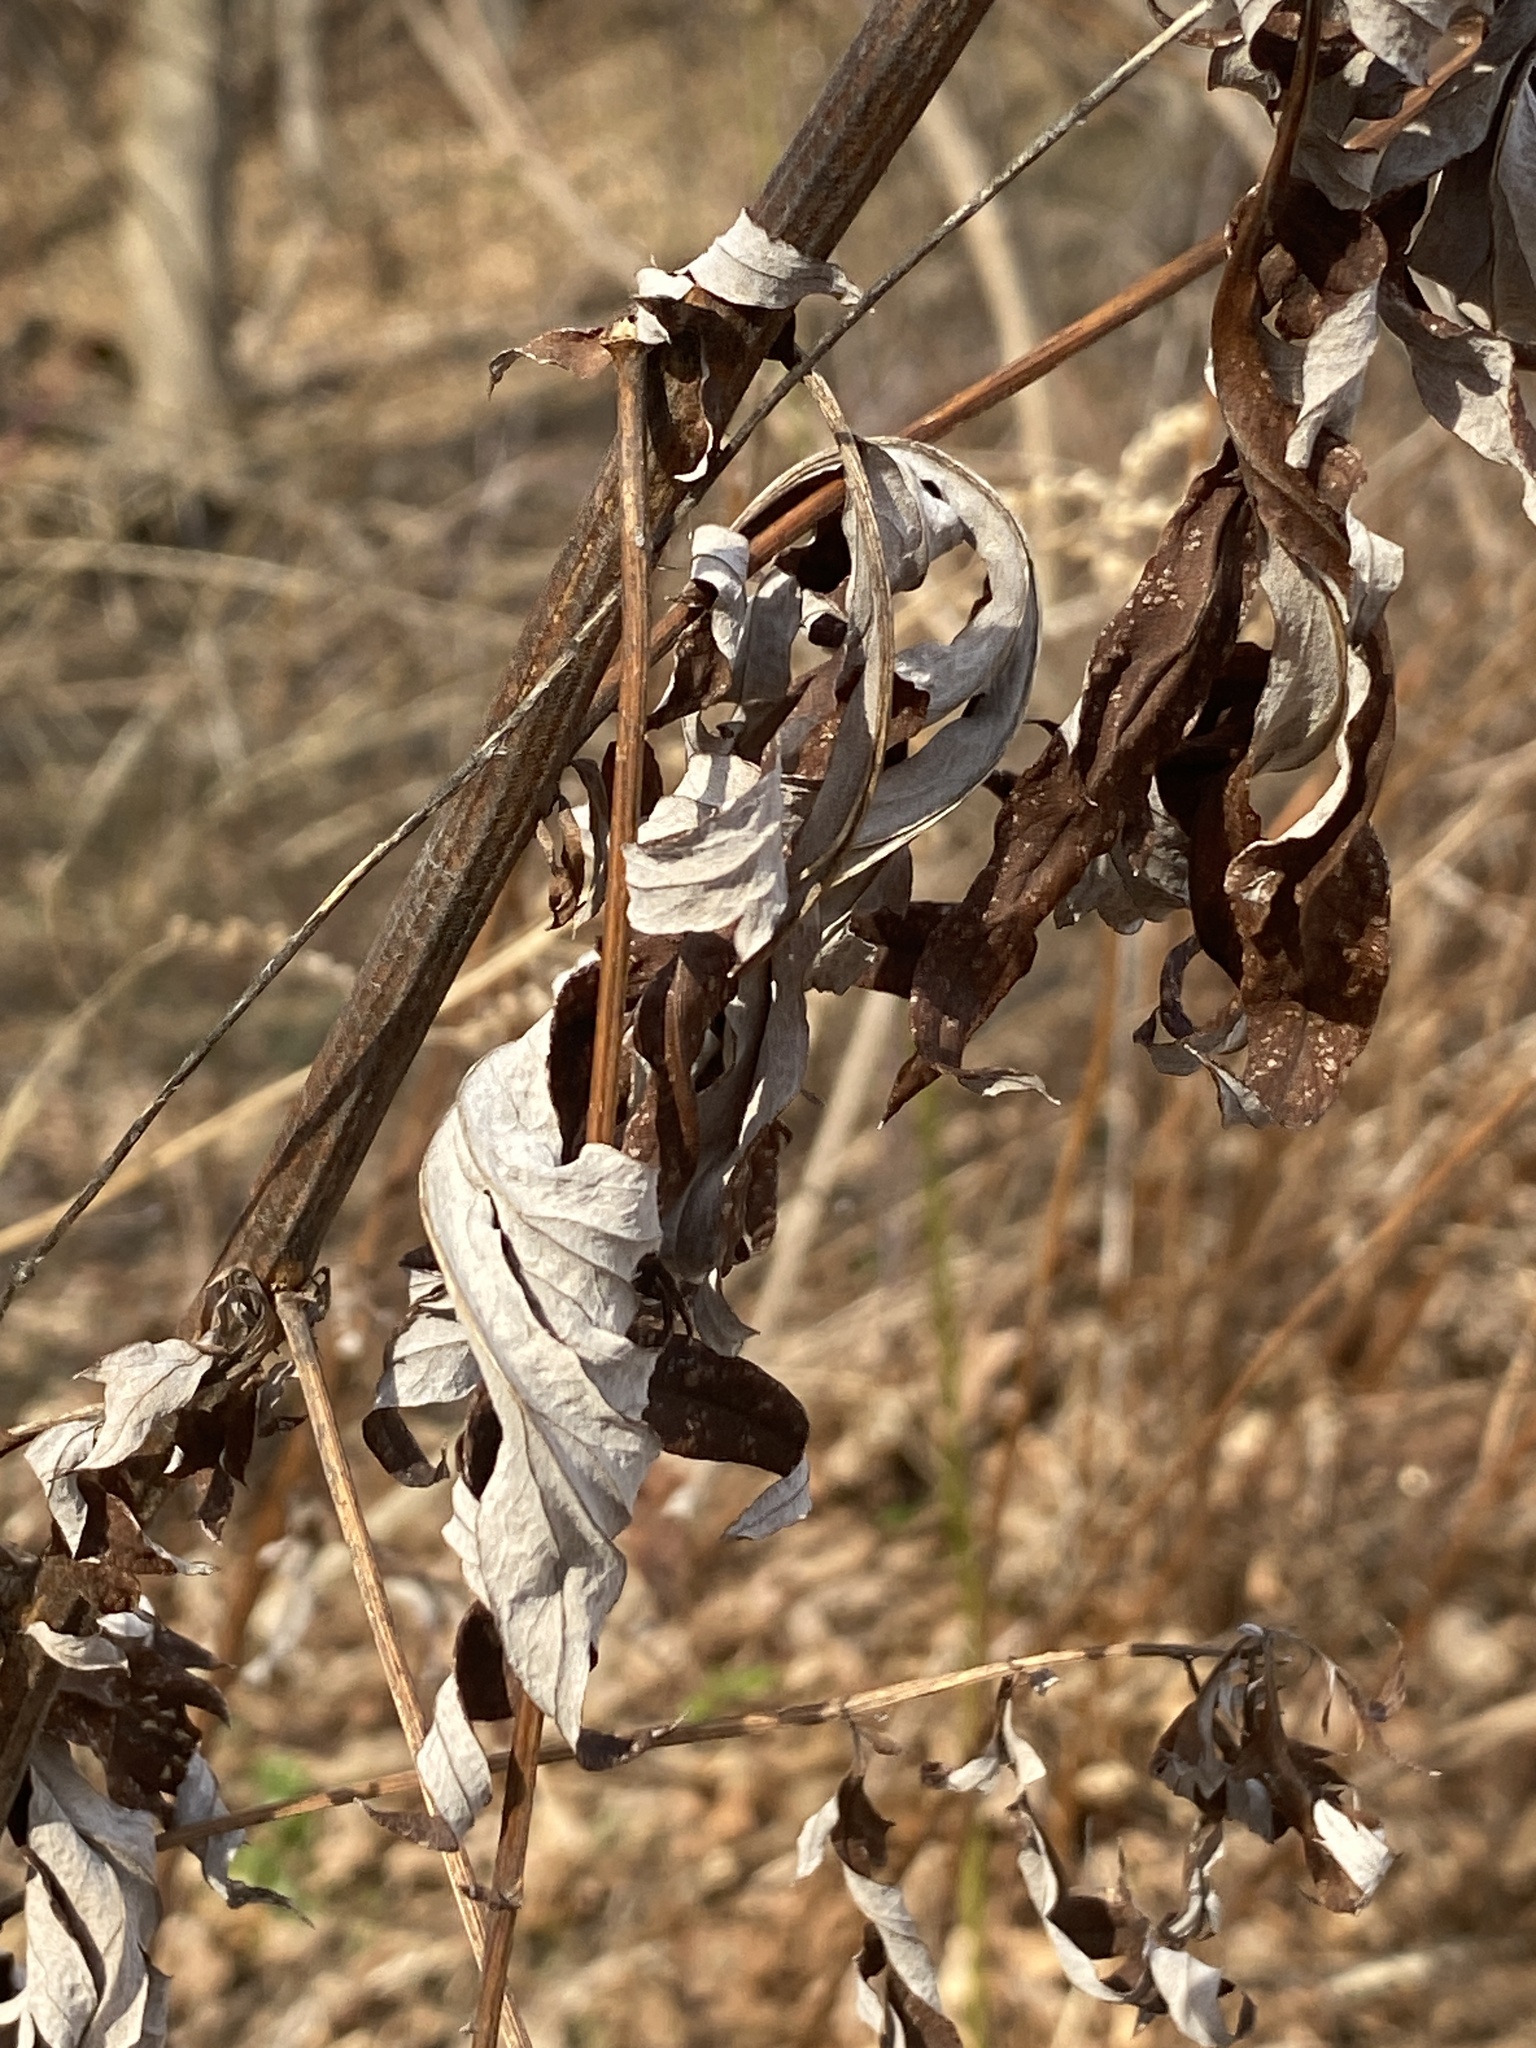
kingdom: Plantae
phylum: Tracheophyta
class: Magnoliopsida
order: Asterales
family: Asteraceae
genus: Artemisia
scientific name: Artemisia vulgaris
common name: Mugwort
